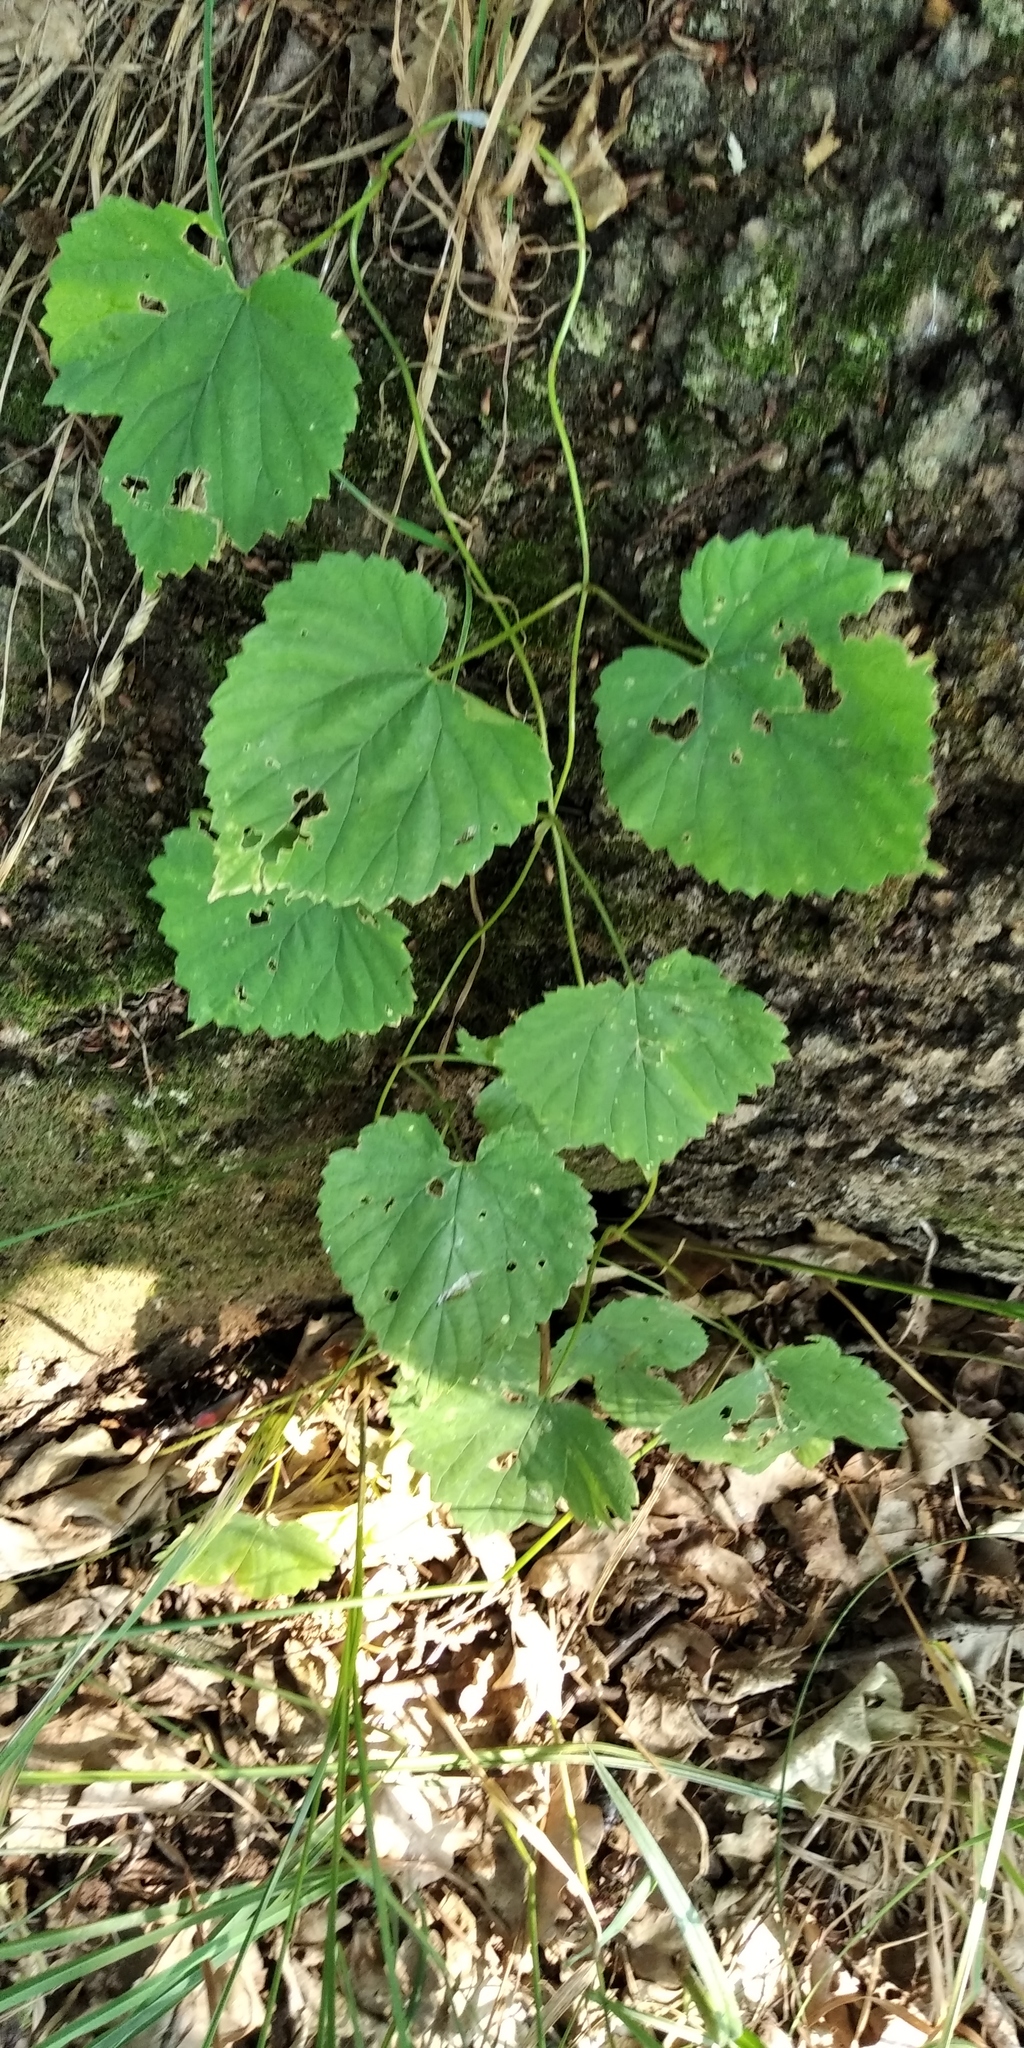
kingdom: Plantae
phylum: Tracheophyta
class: Magnoliopsida
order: Rosales
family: Cannabaceae
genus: Humulus
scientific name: Humulus lupulus
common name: Hop
